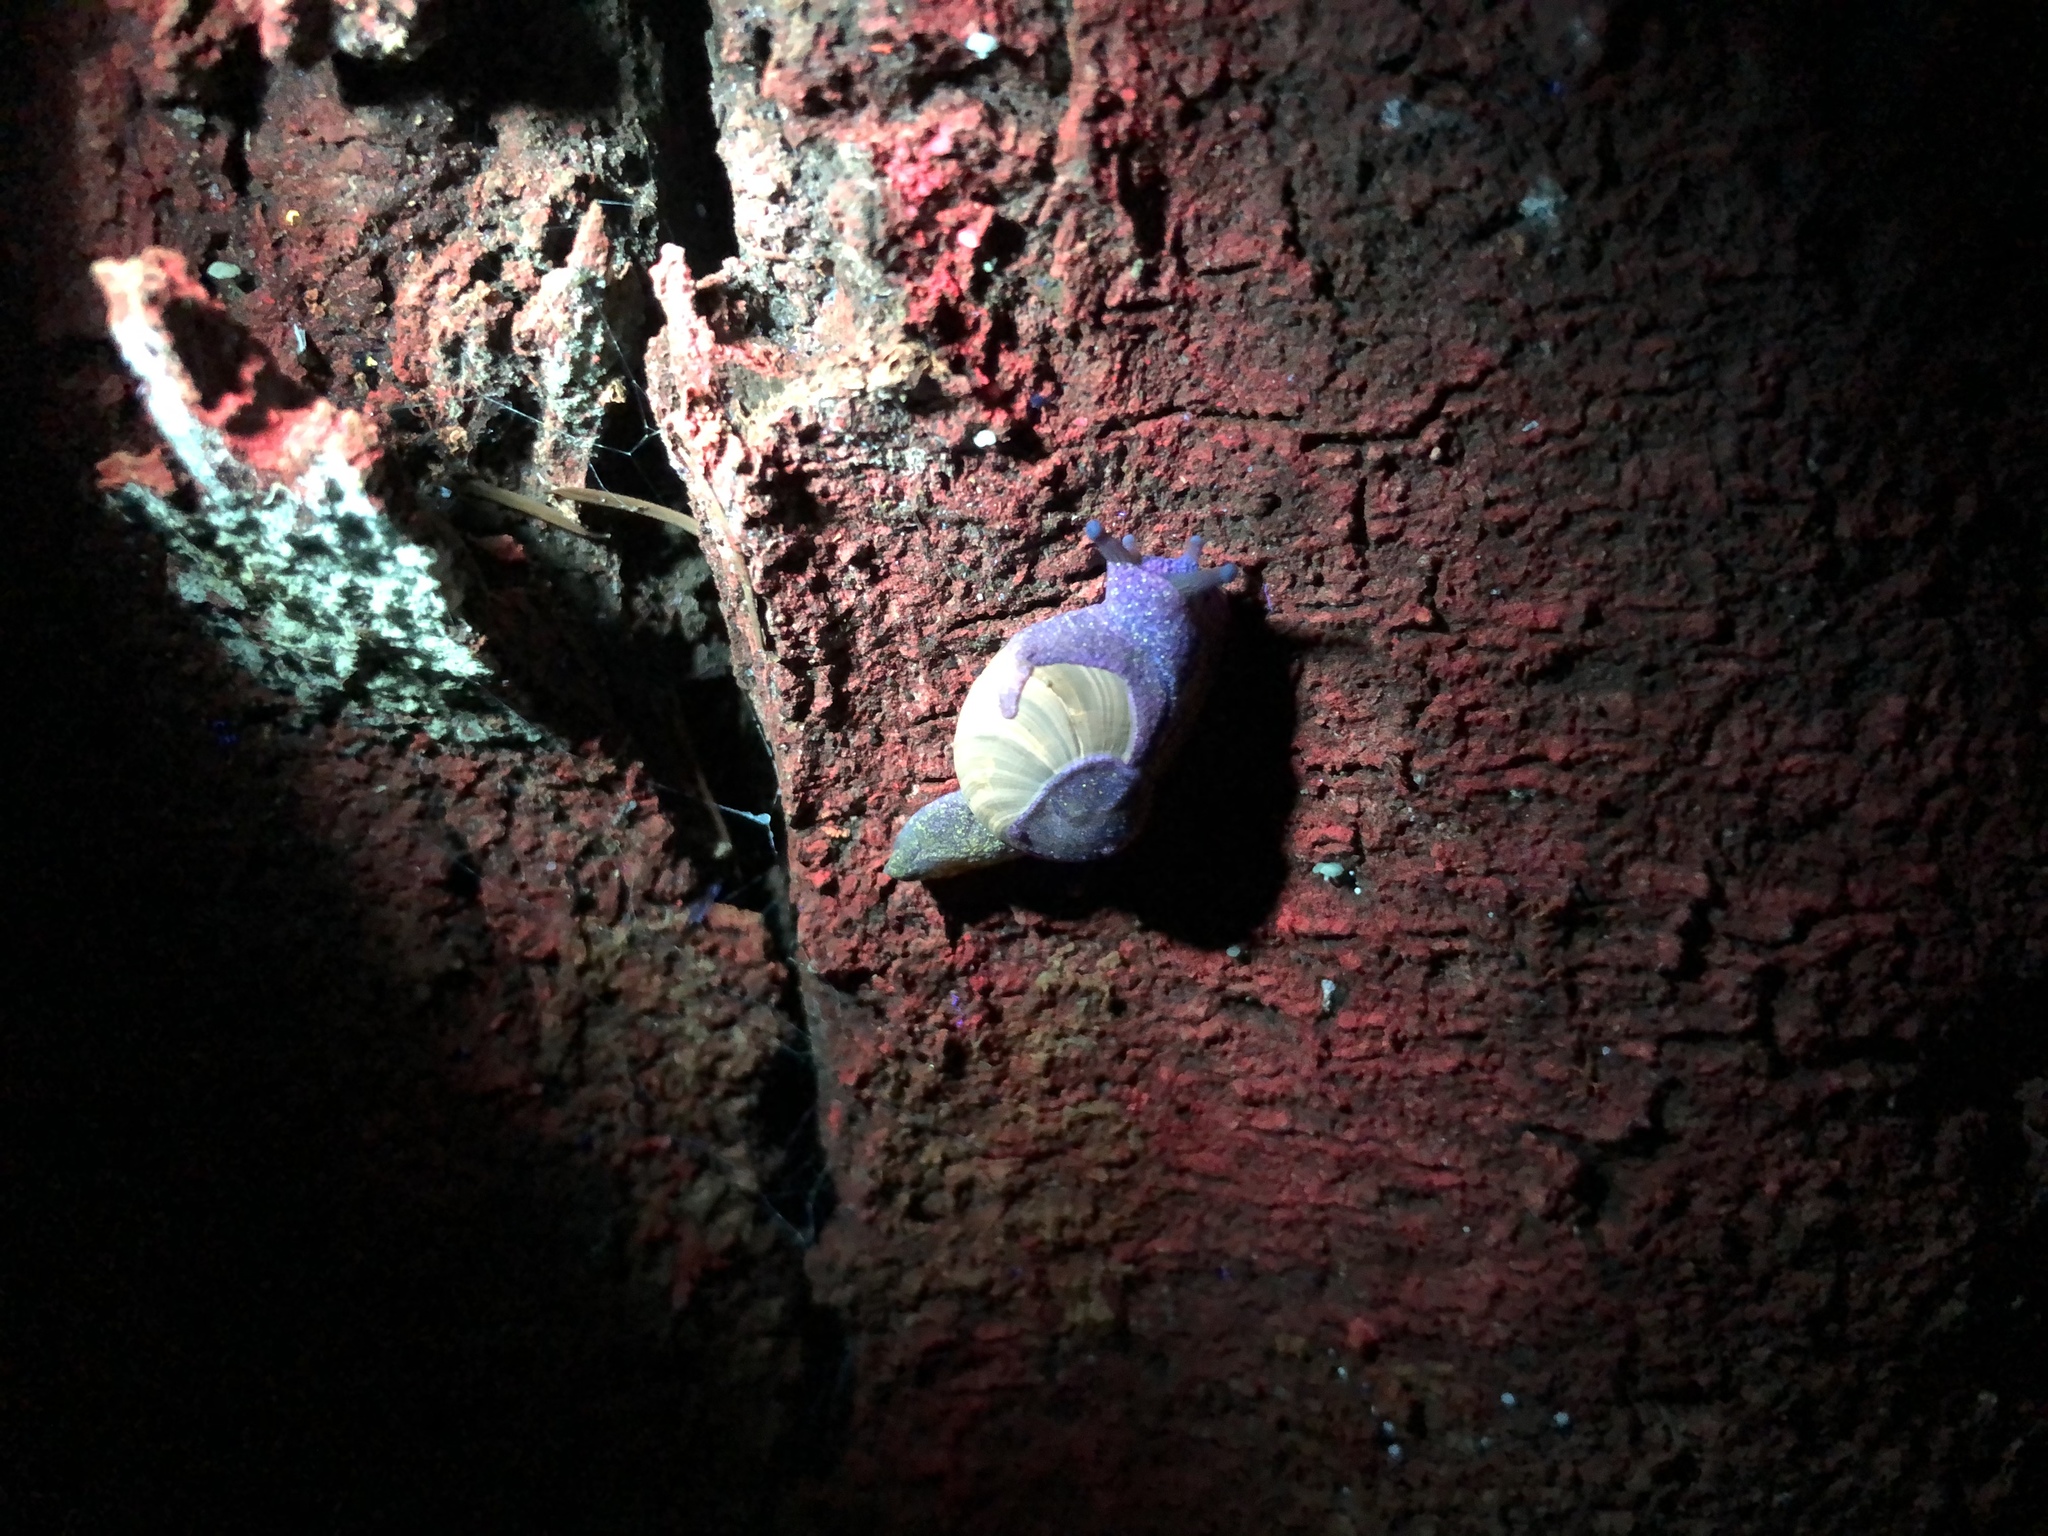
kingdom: Animalia
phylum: Mollusca
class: Gastropoda
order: Stylommatophora
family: Helicarionidae
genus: Helicarion
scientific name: Helicarion cuvieri
